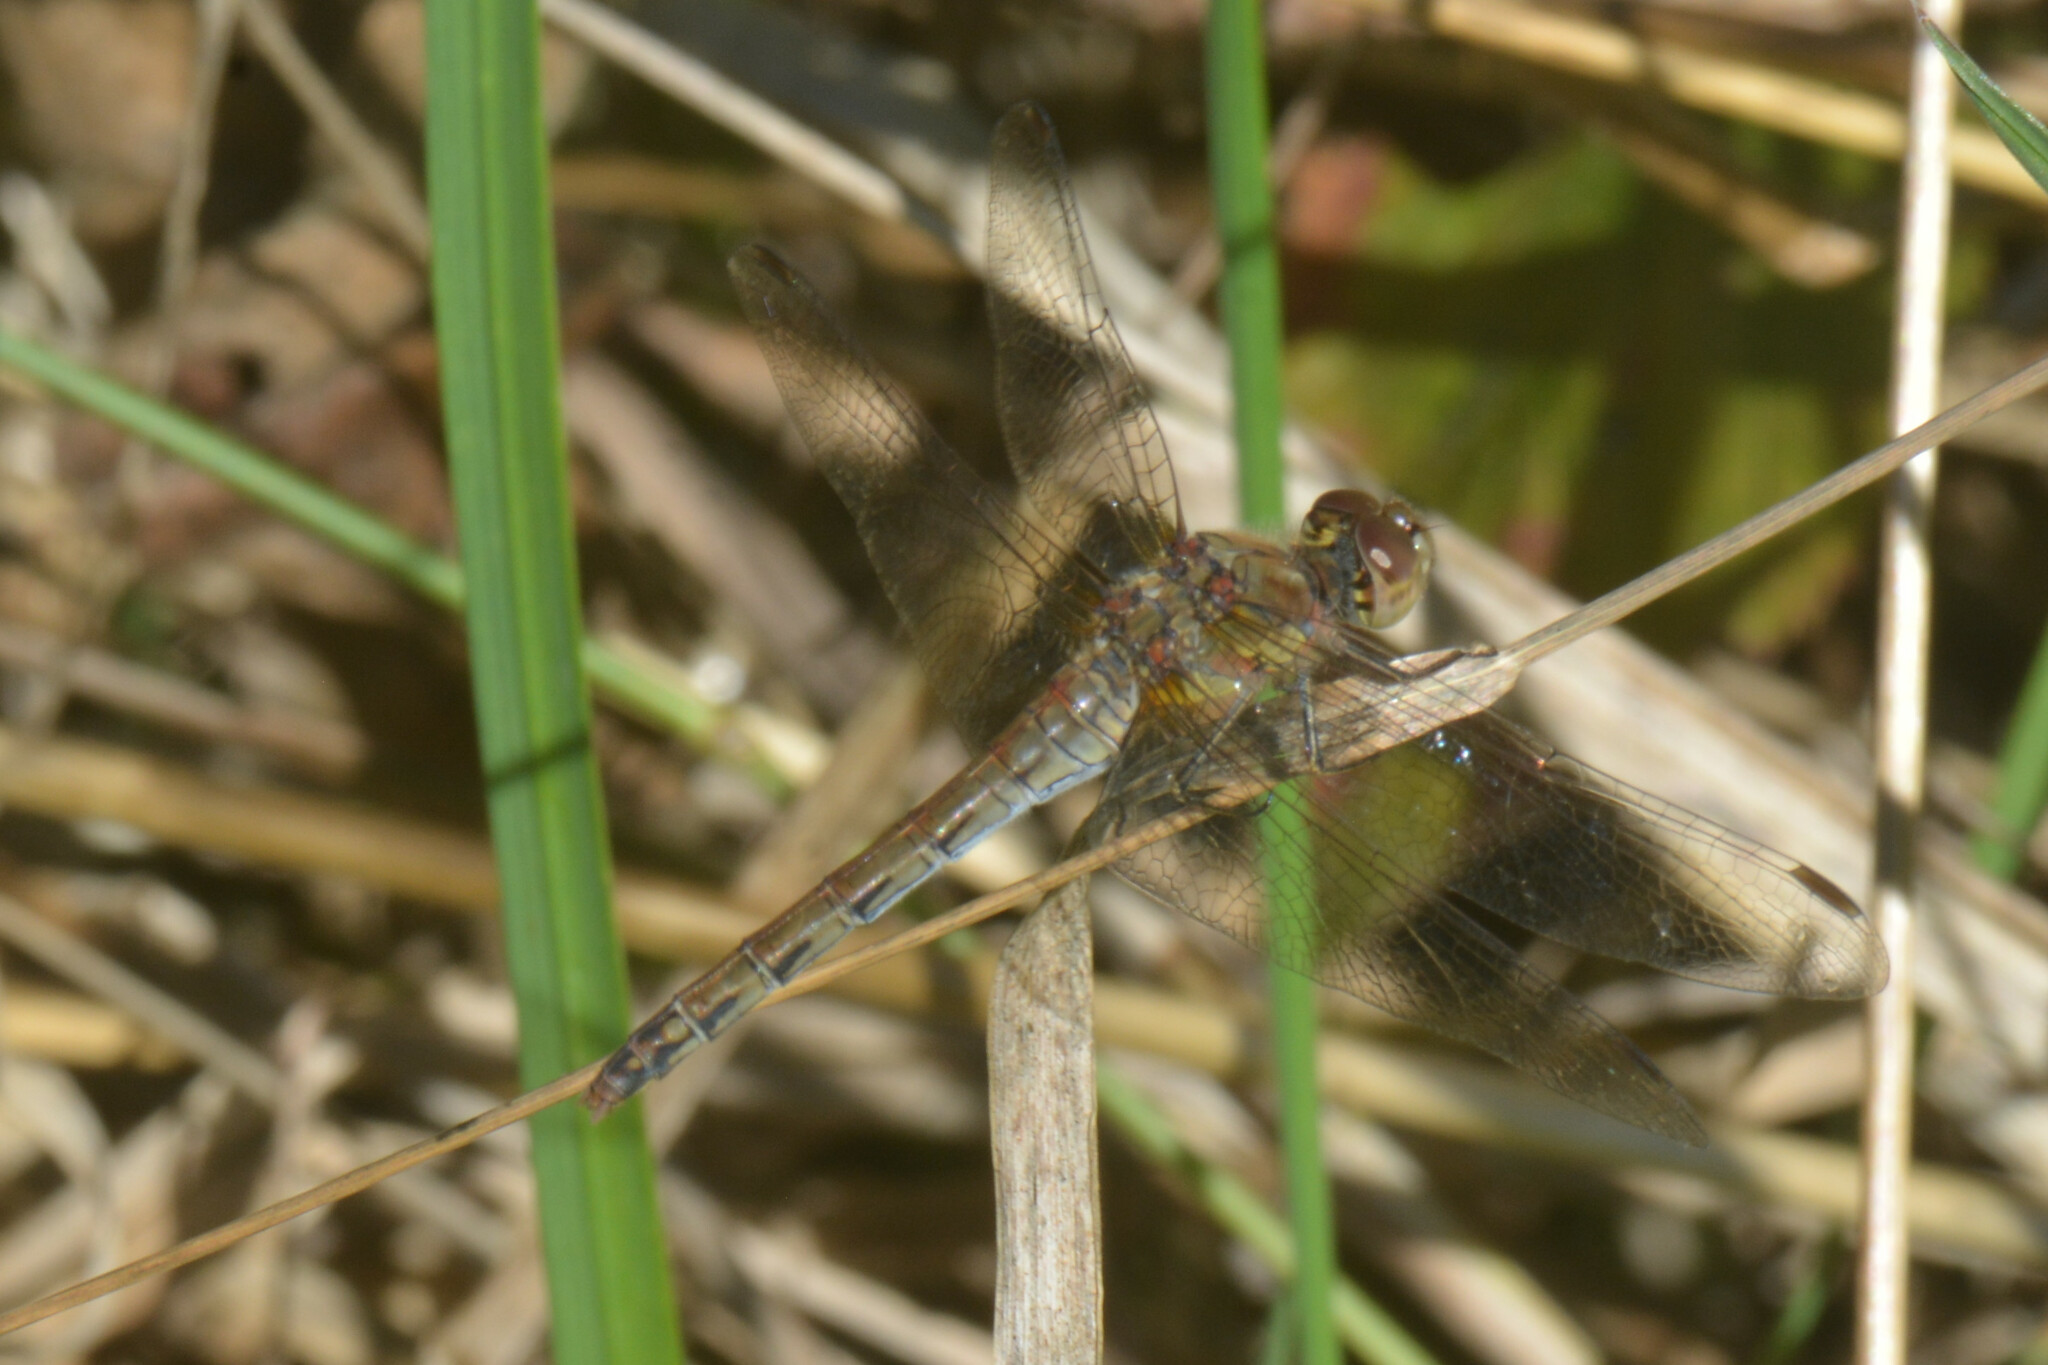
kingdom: Animalia
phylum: Arthropoda
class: Insecta
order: Odonata
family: Libellulidae
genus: Sympetrum
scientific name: Sympetrum striolatum
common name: Common darter
